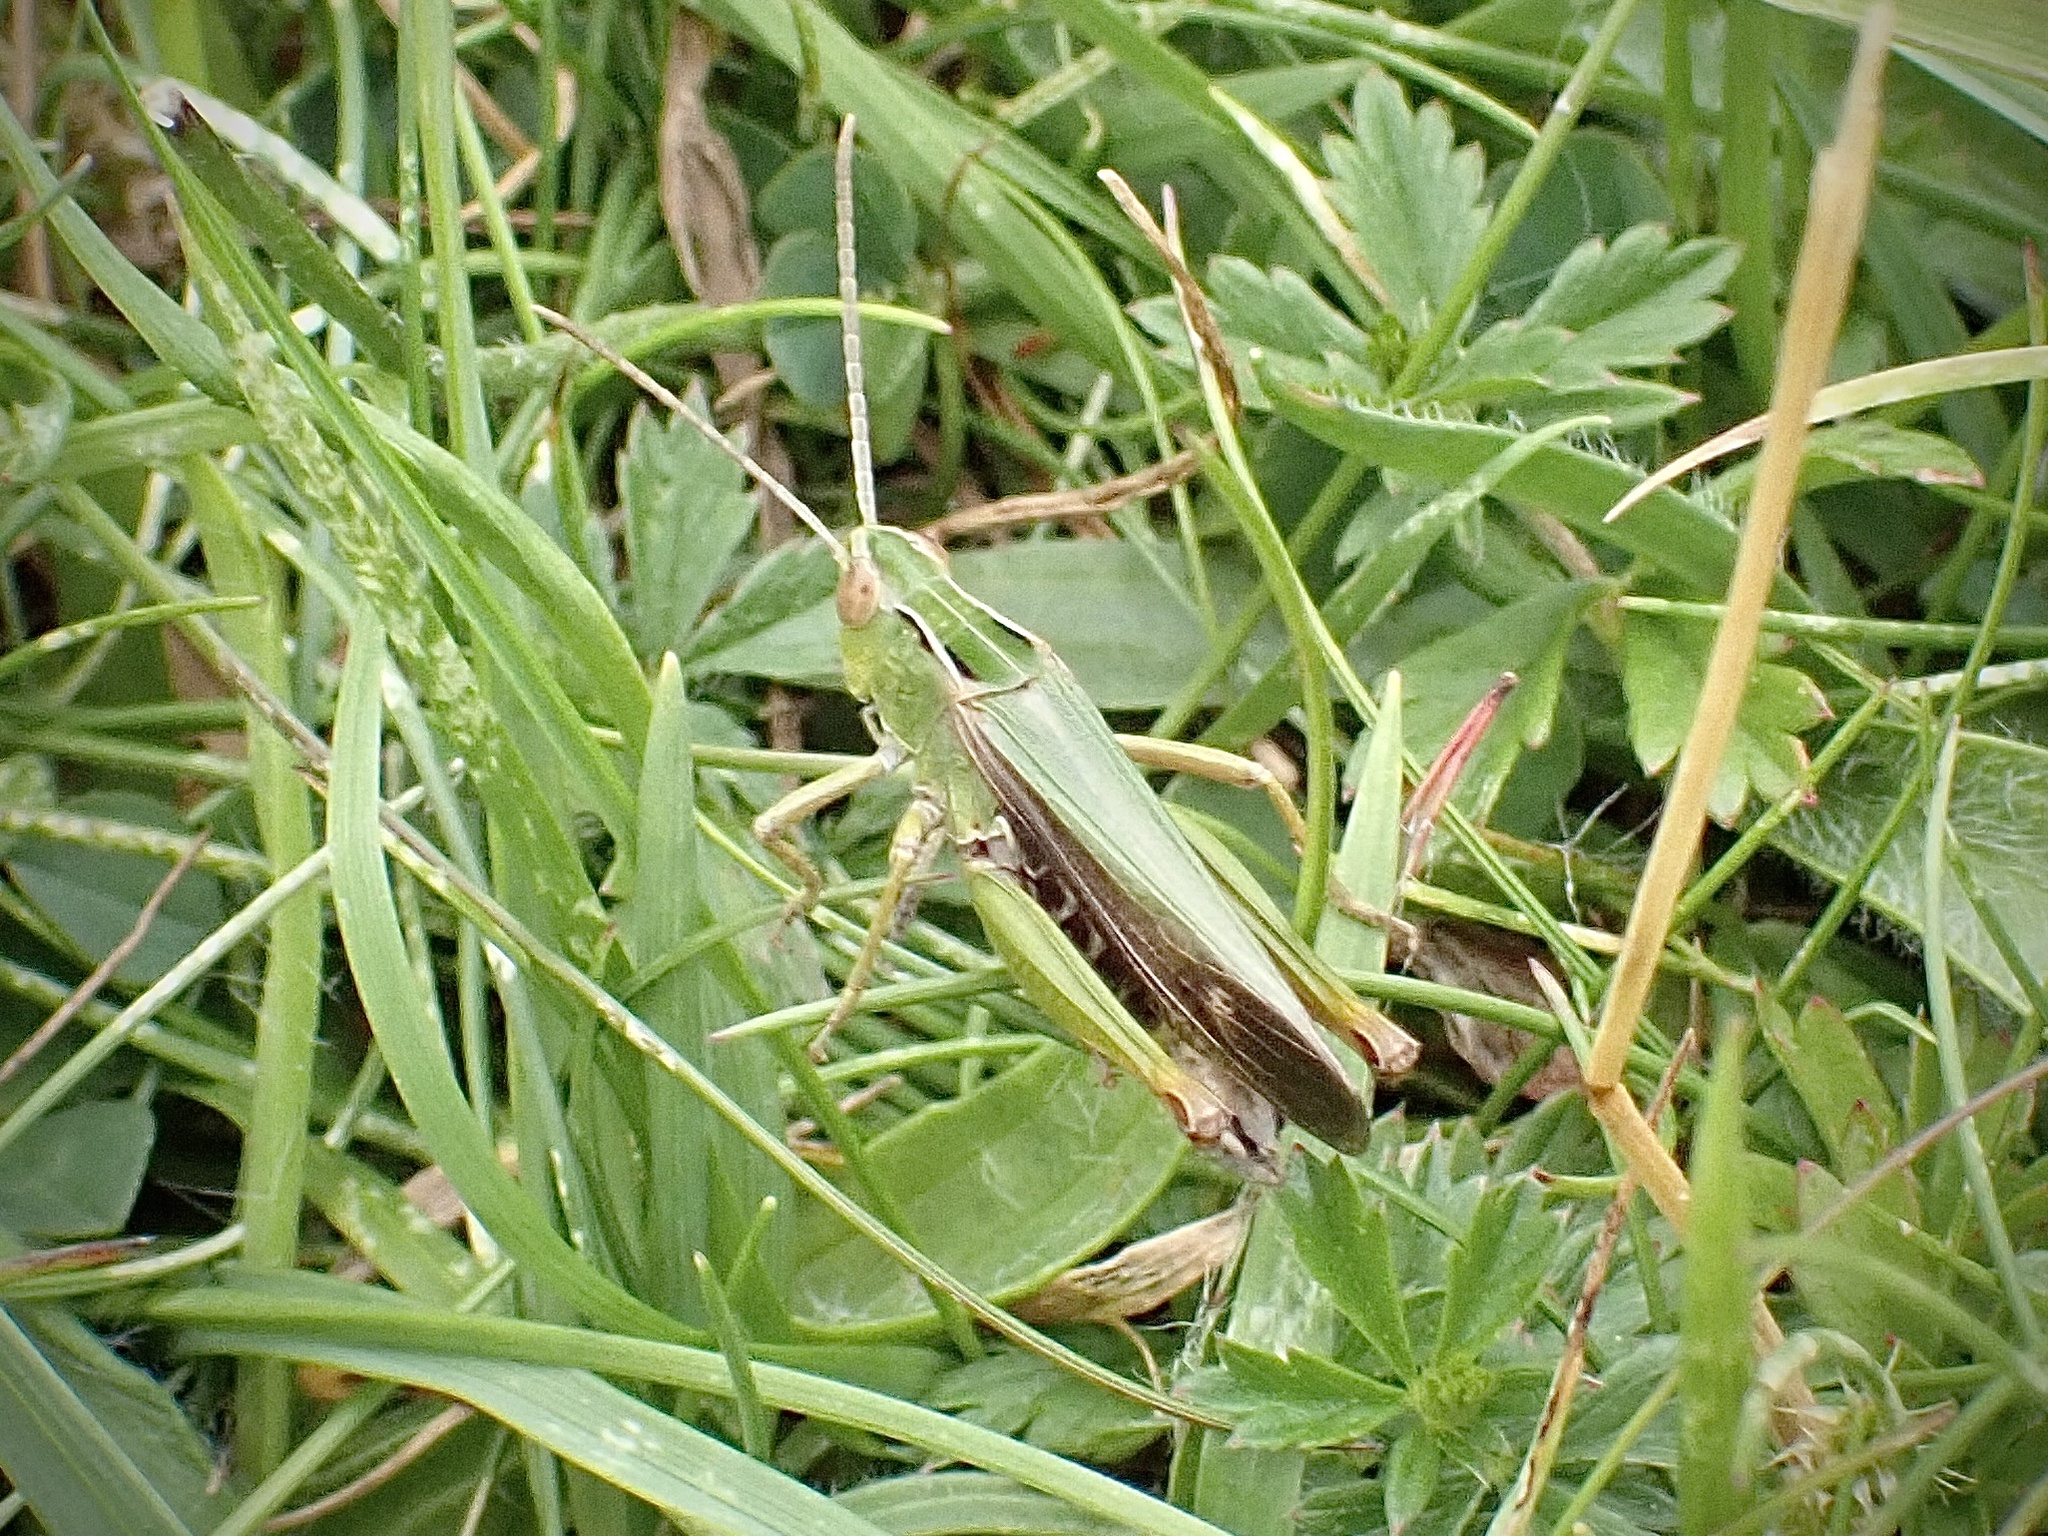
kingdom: Animalia
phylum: Arthropoda
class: Insecta
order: Orthoptera
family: Acrididae
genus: Omocestus
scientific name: Omocestus viridulus
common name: Common green grasshopper
